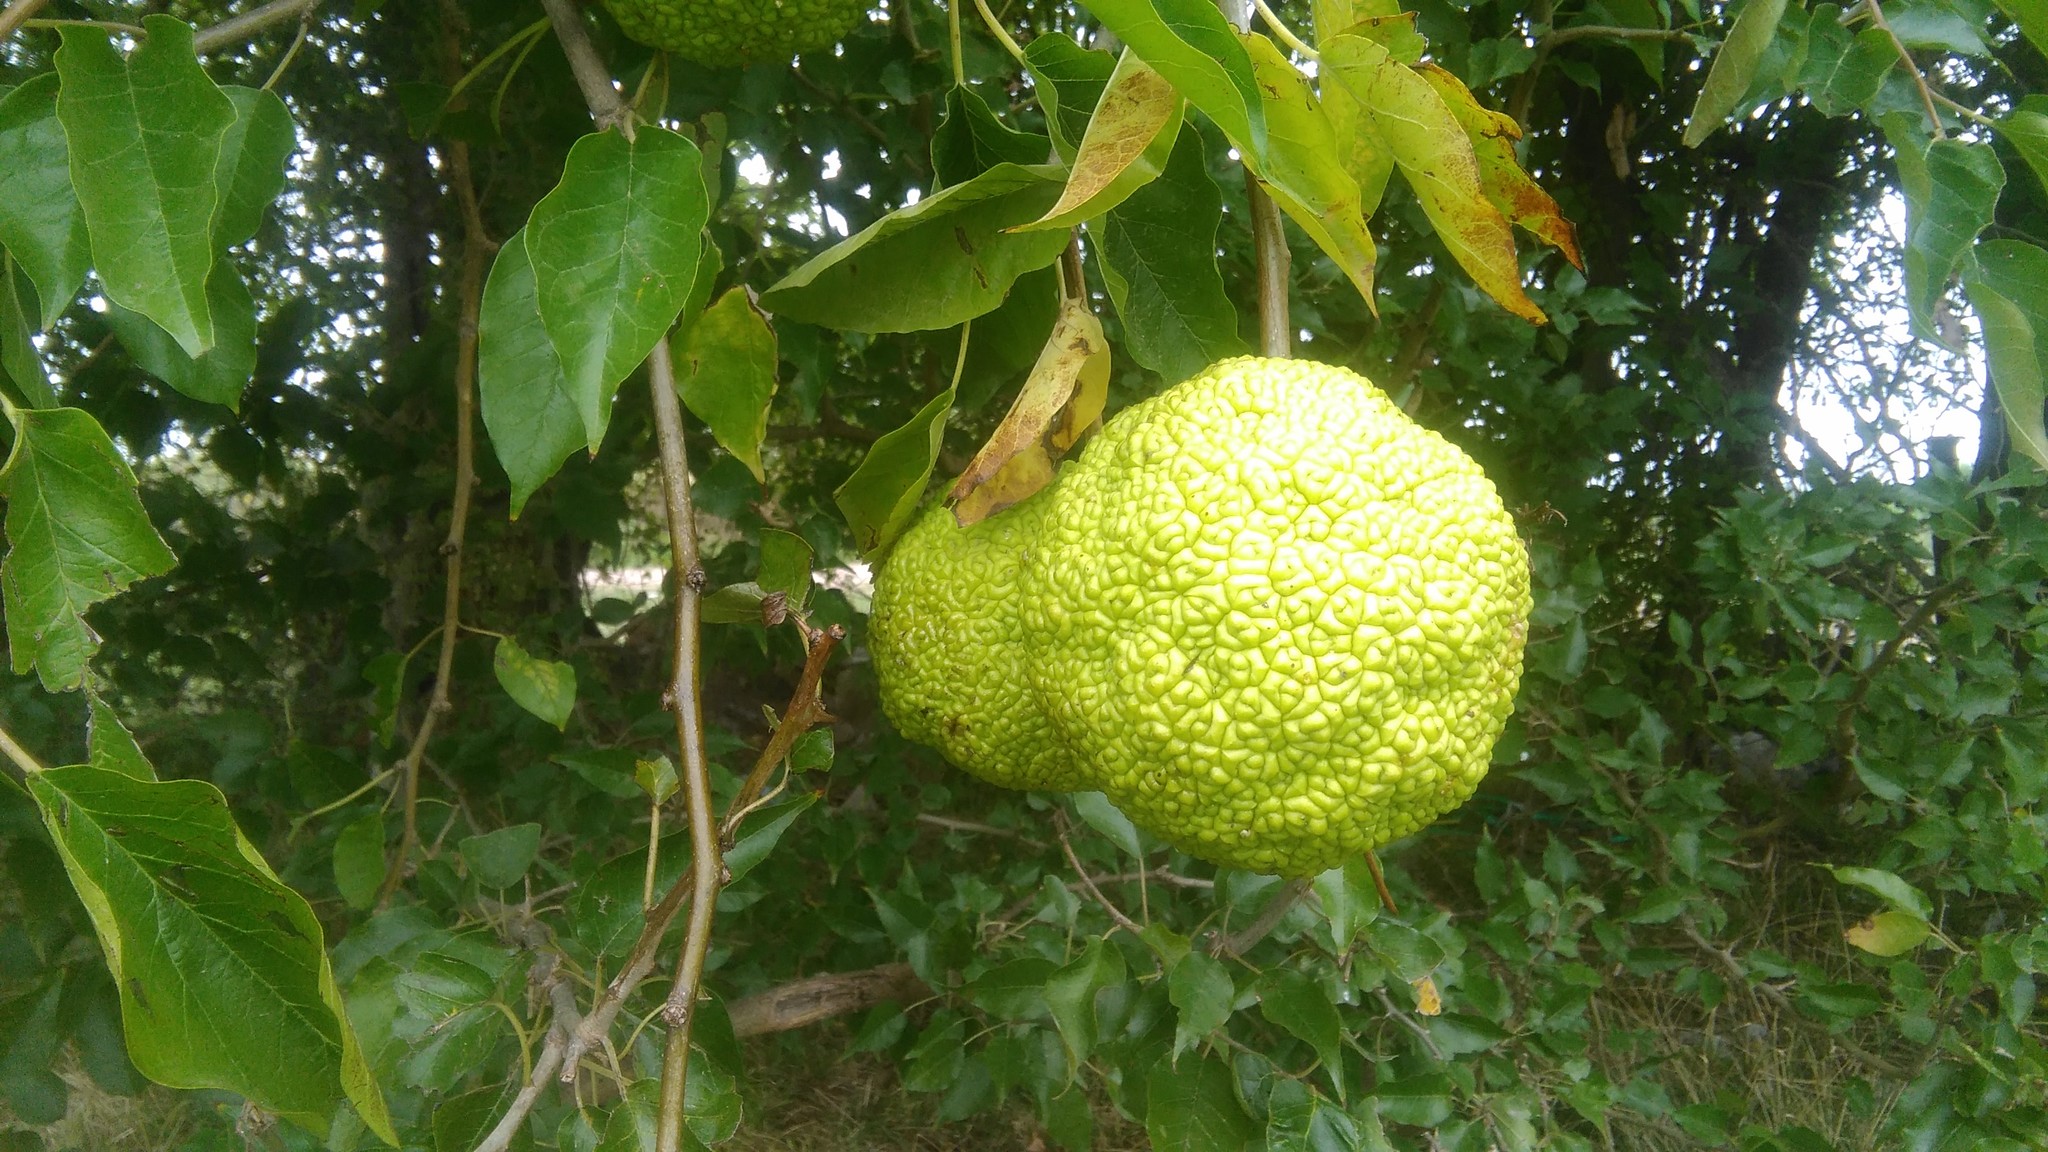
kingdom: Plantae
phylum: Tracheophyta
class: Magnoliopsida
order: Rosales
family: Moraceae
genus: Maclura
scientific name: Maclura pomifera
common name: Osage-orange
